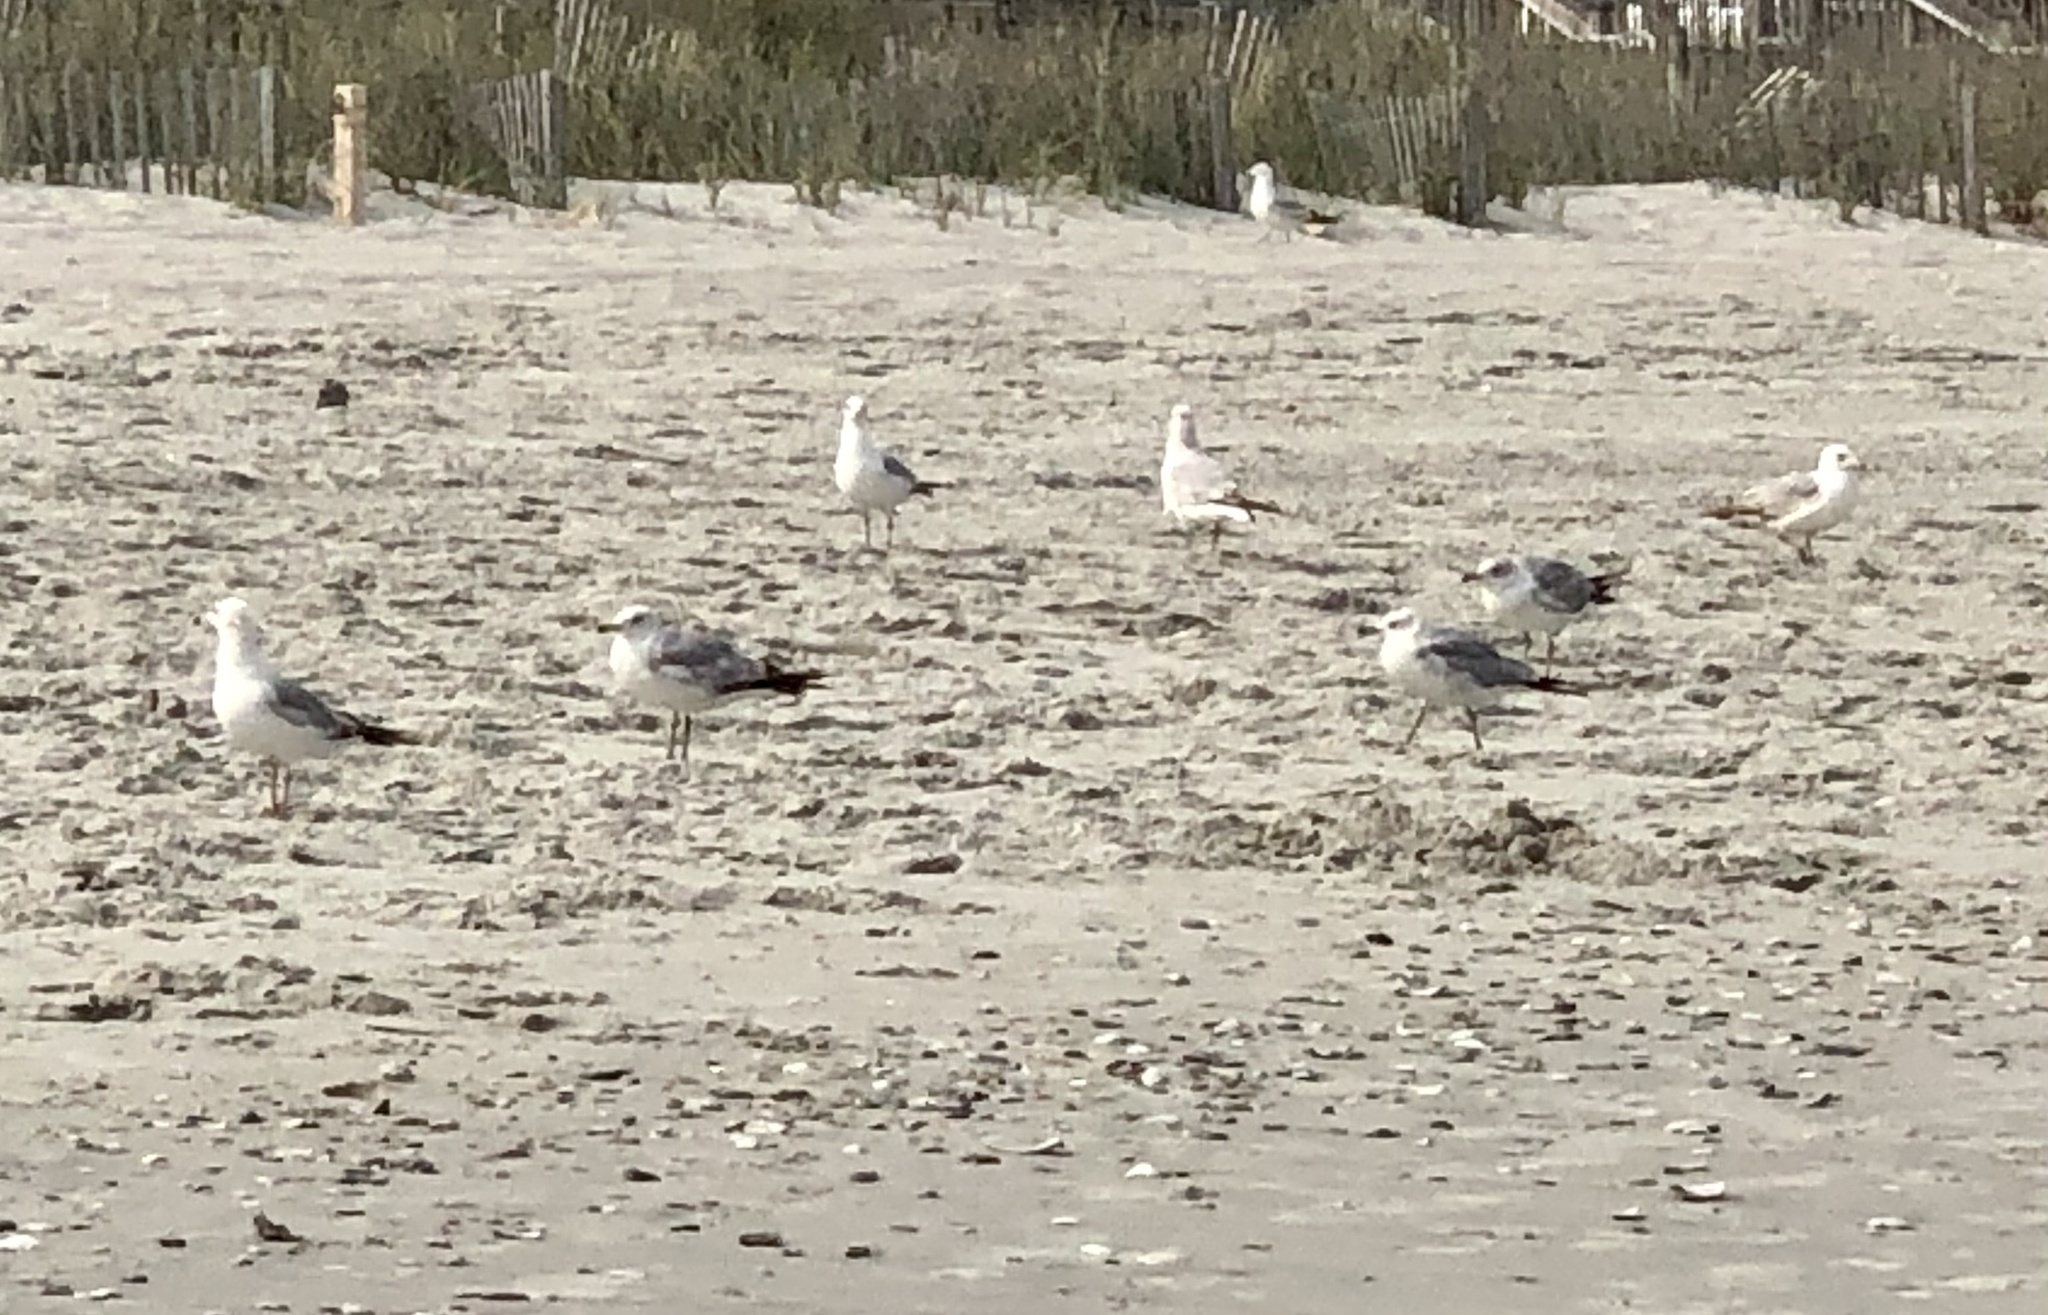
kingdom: Animalia
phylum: Chordata
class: Aves
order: Charadriiformes
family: Laridae
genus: Larus
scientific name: Larus delawarensis
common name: Ring-billed gull
